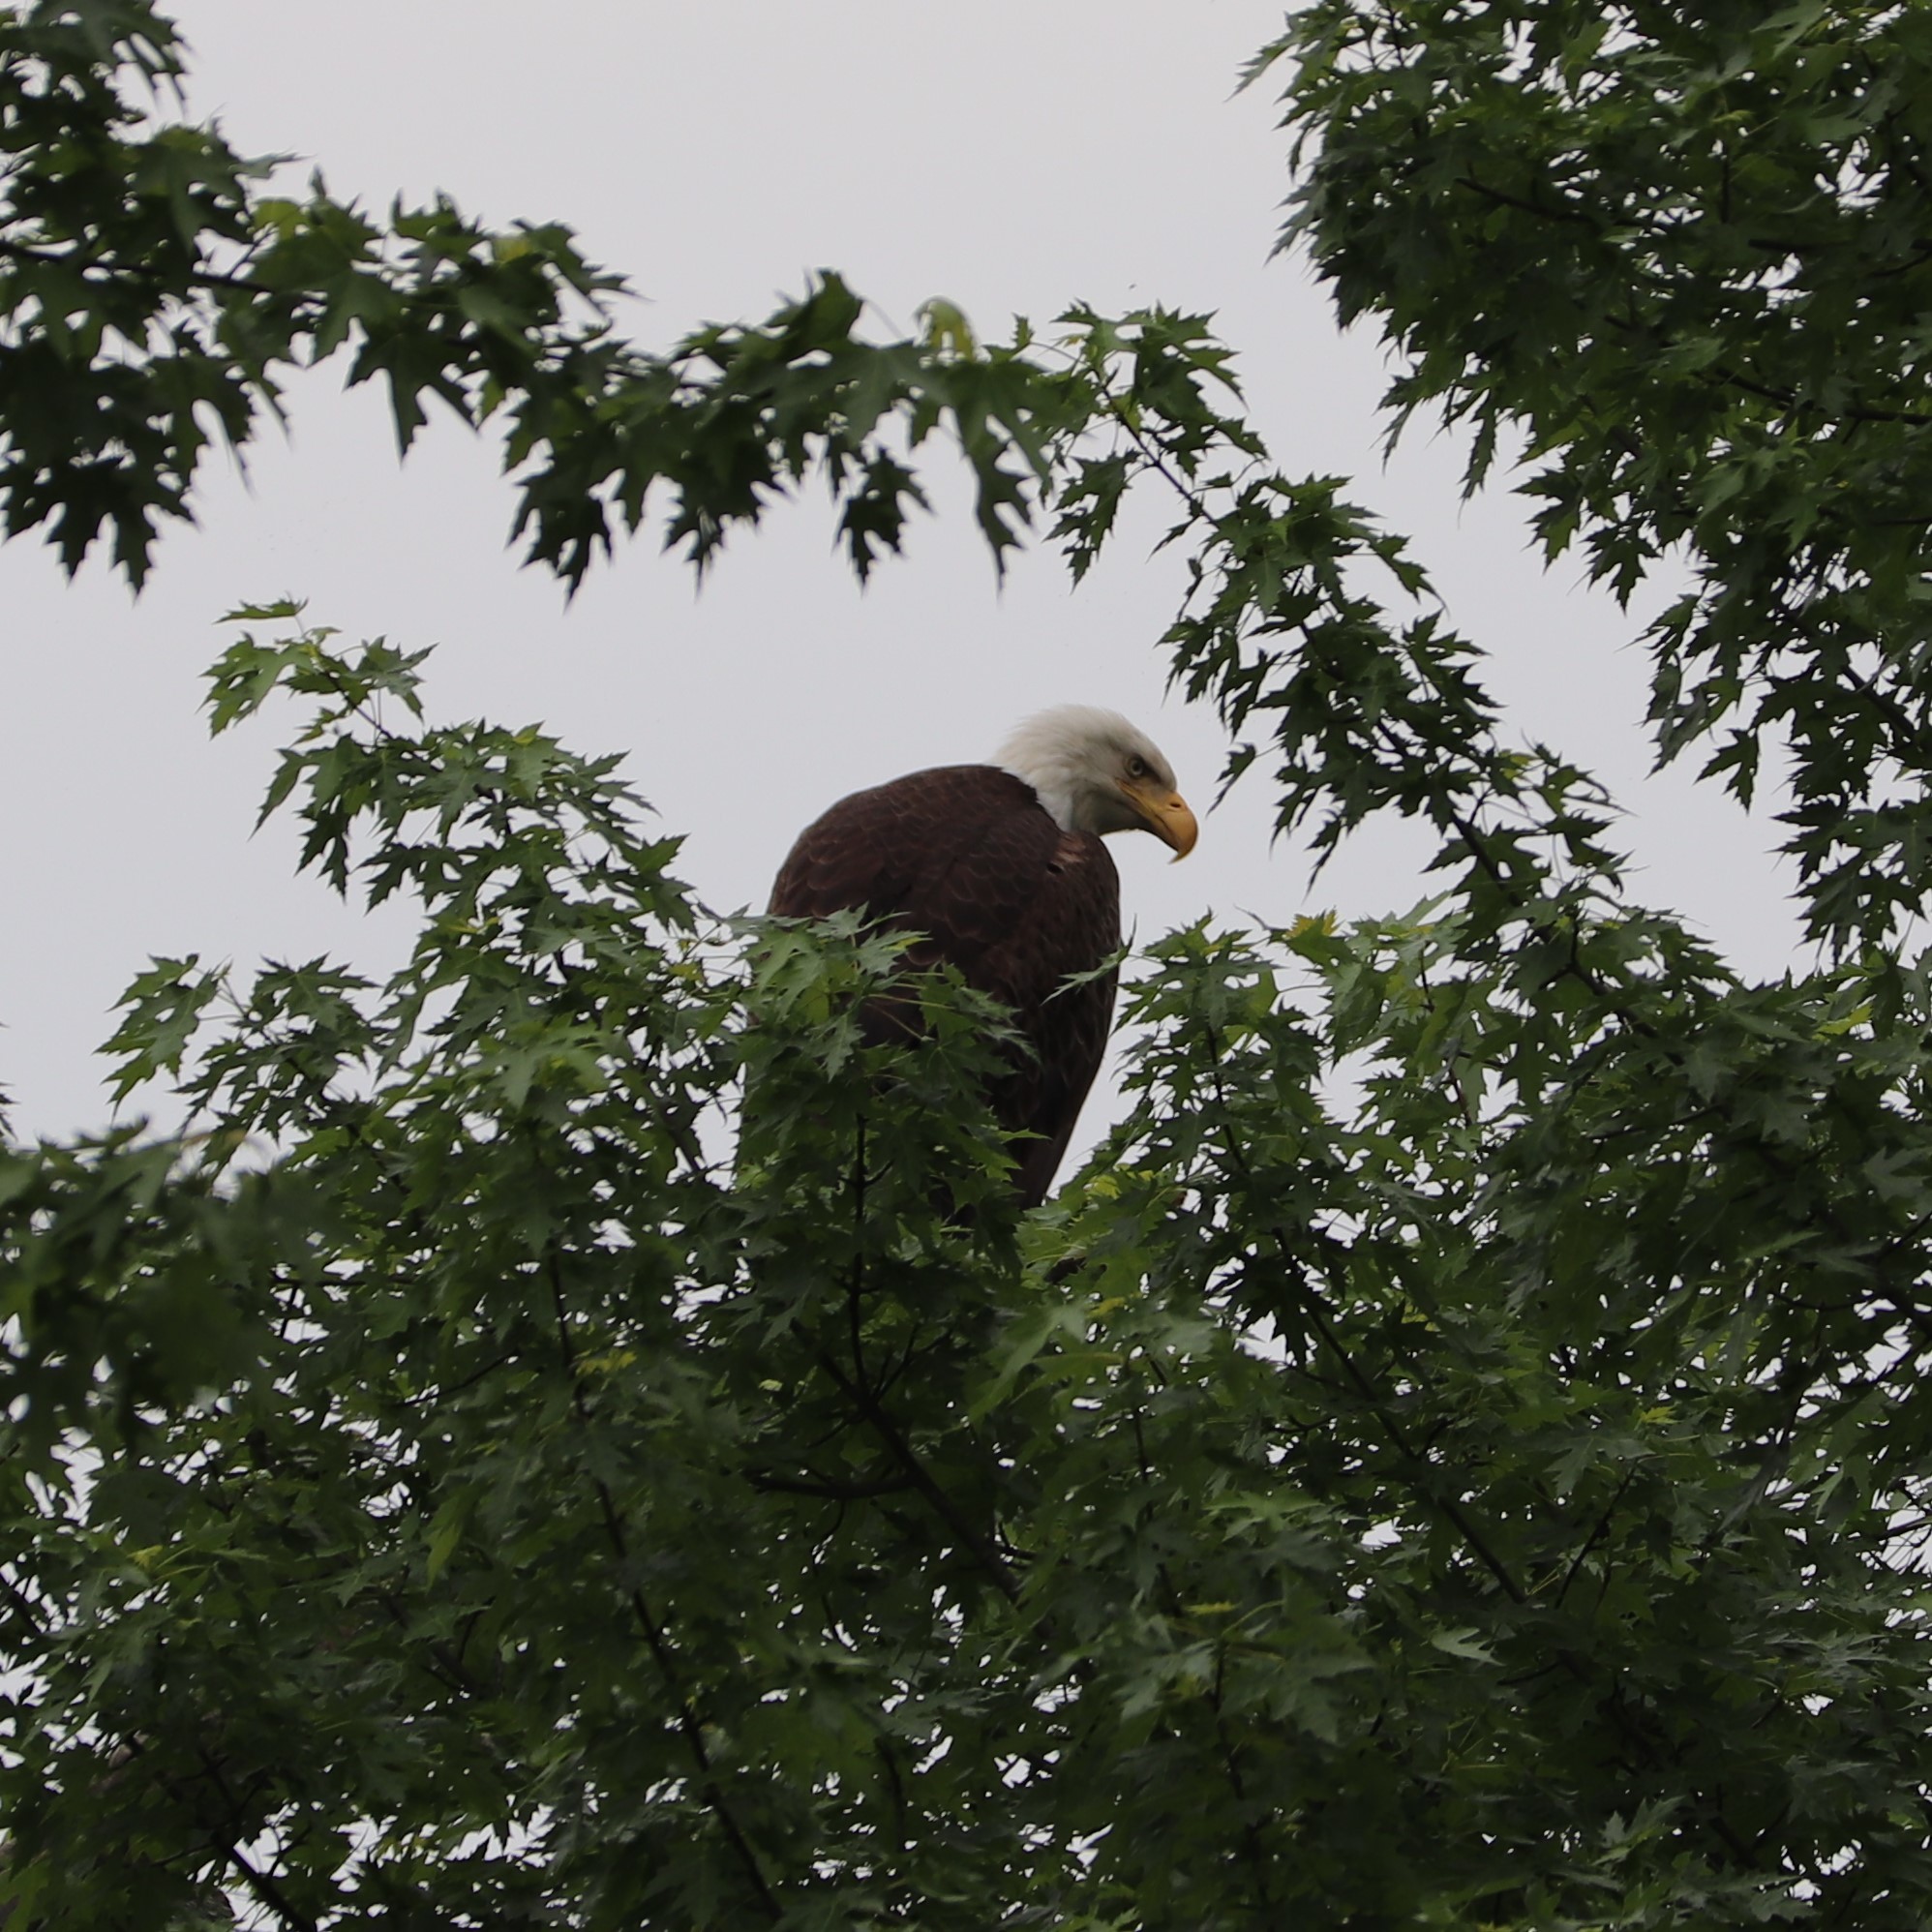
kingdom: Animalia
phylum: Chordata
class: Aves
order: Accipitriformes
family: Accipitridae
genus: Haliaeetus
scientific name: Haliaeetus leucocephalus
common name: Bald eagle
